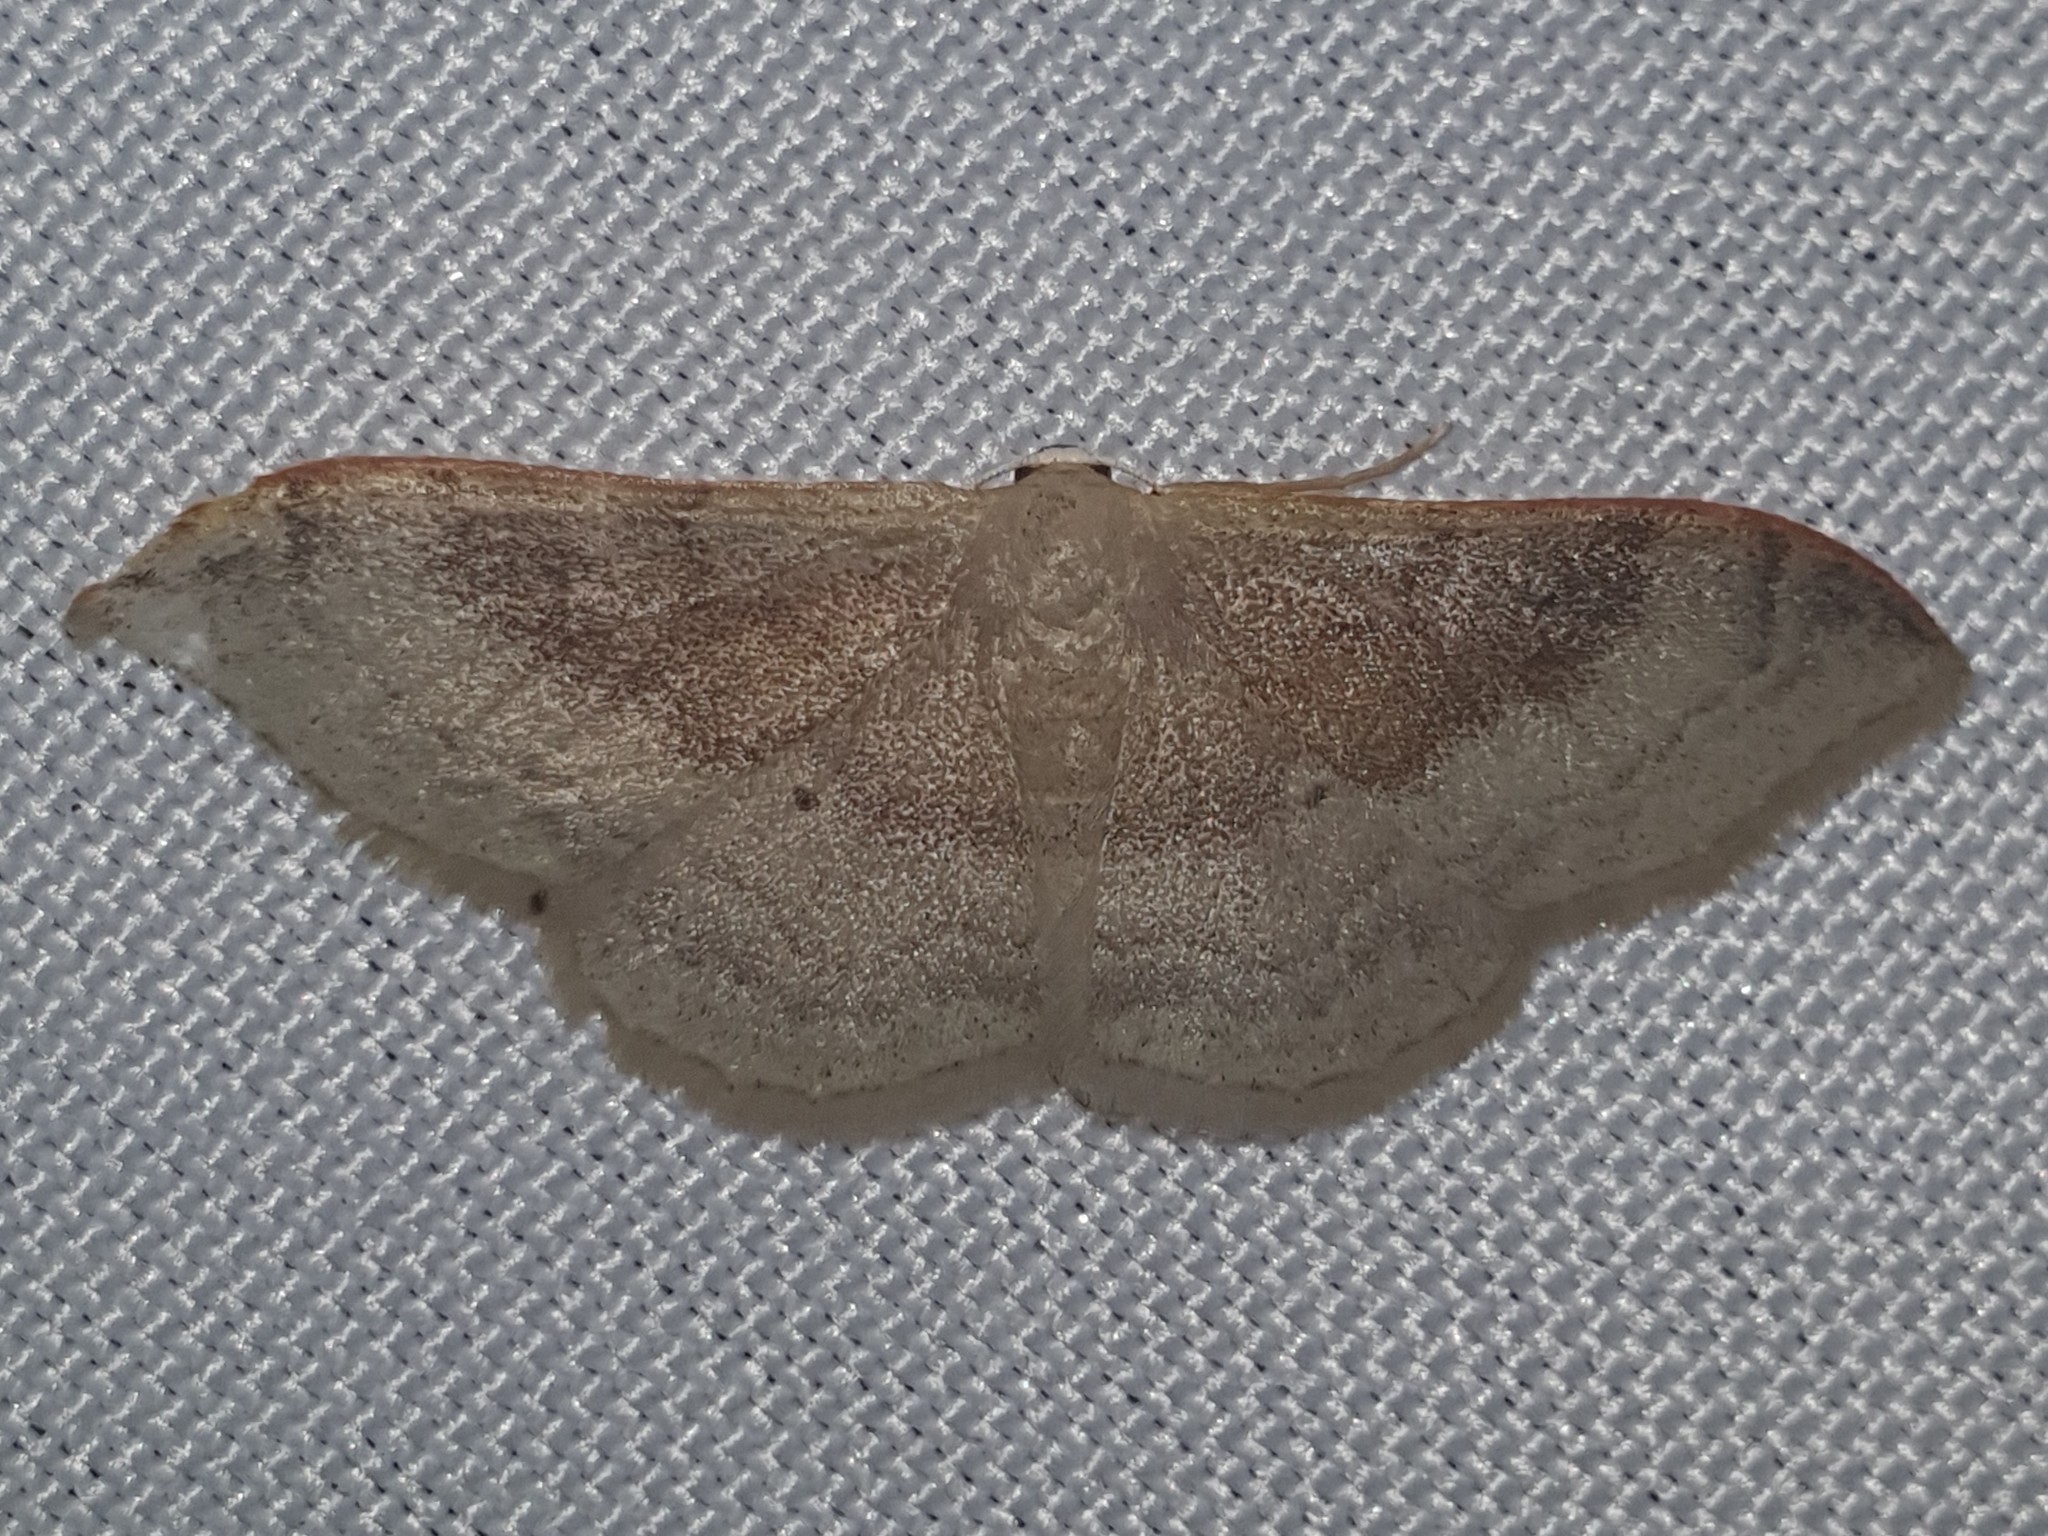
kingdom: Animalia
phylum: Arthropoda
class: Insecta
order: Lepidoptera
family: Geometridae
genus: Idaea
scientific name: Idaea degeneraria
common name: Portland ribbon wave
